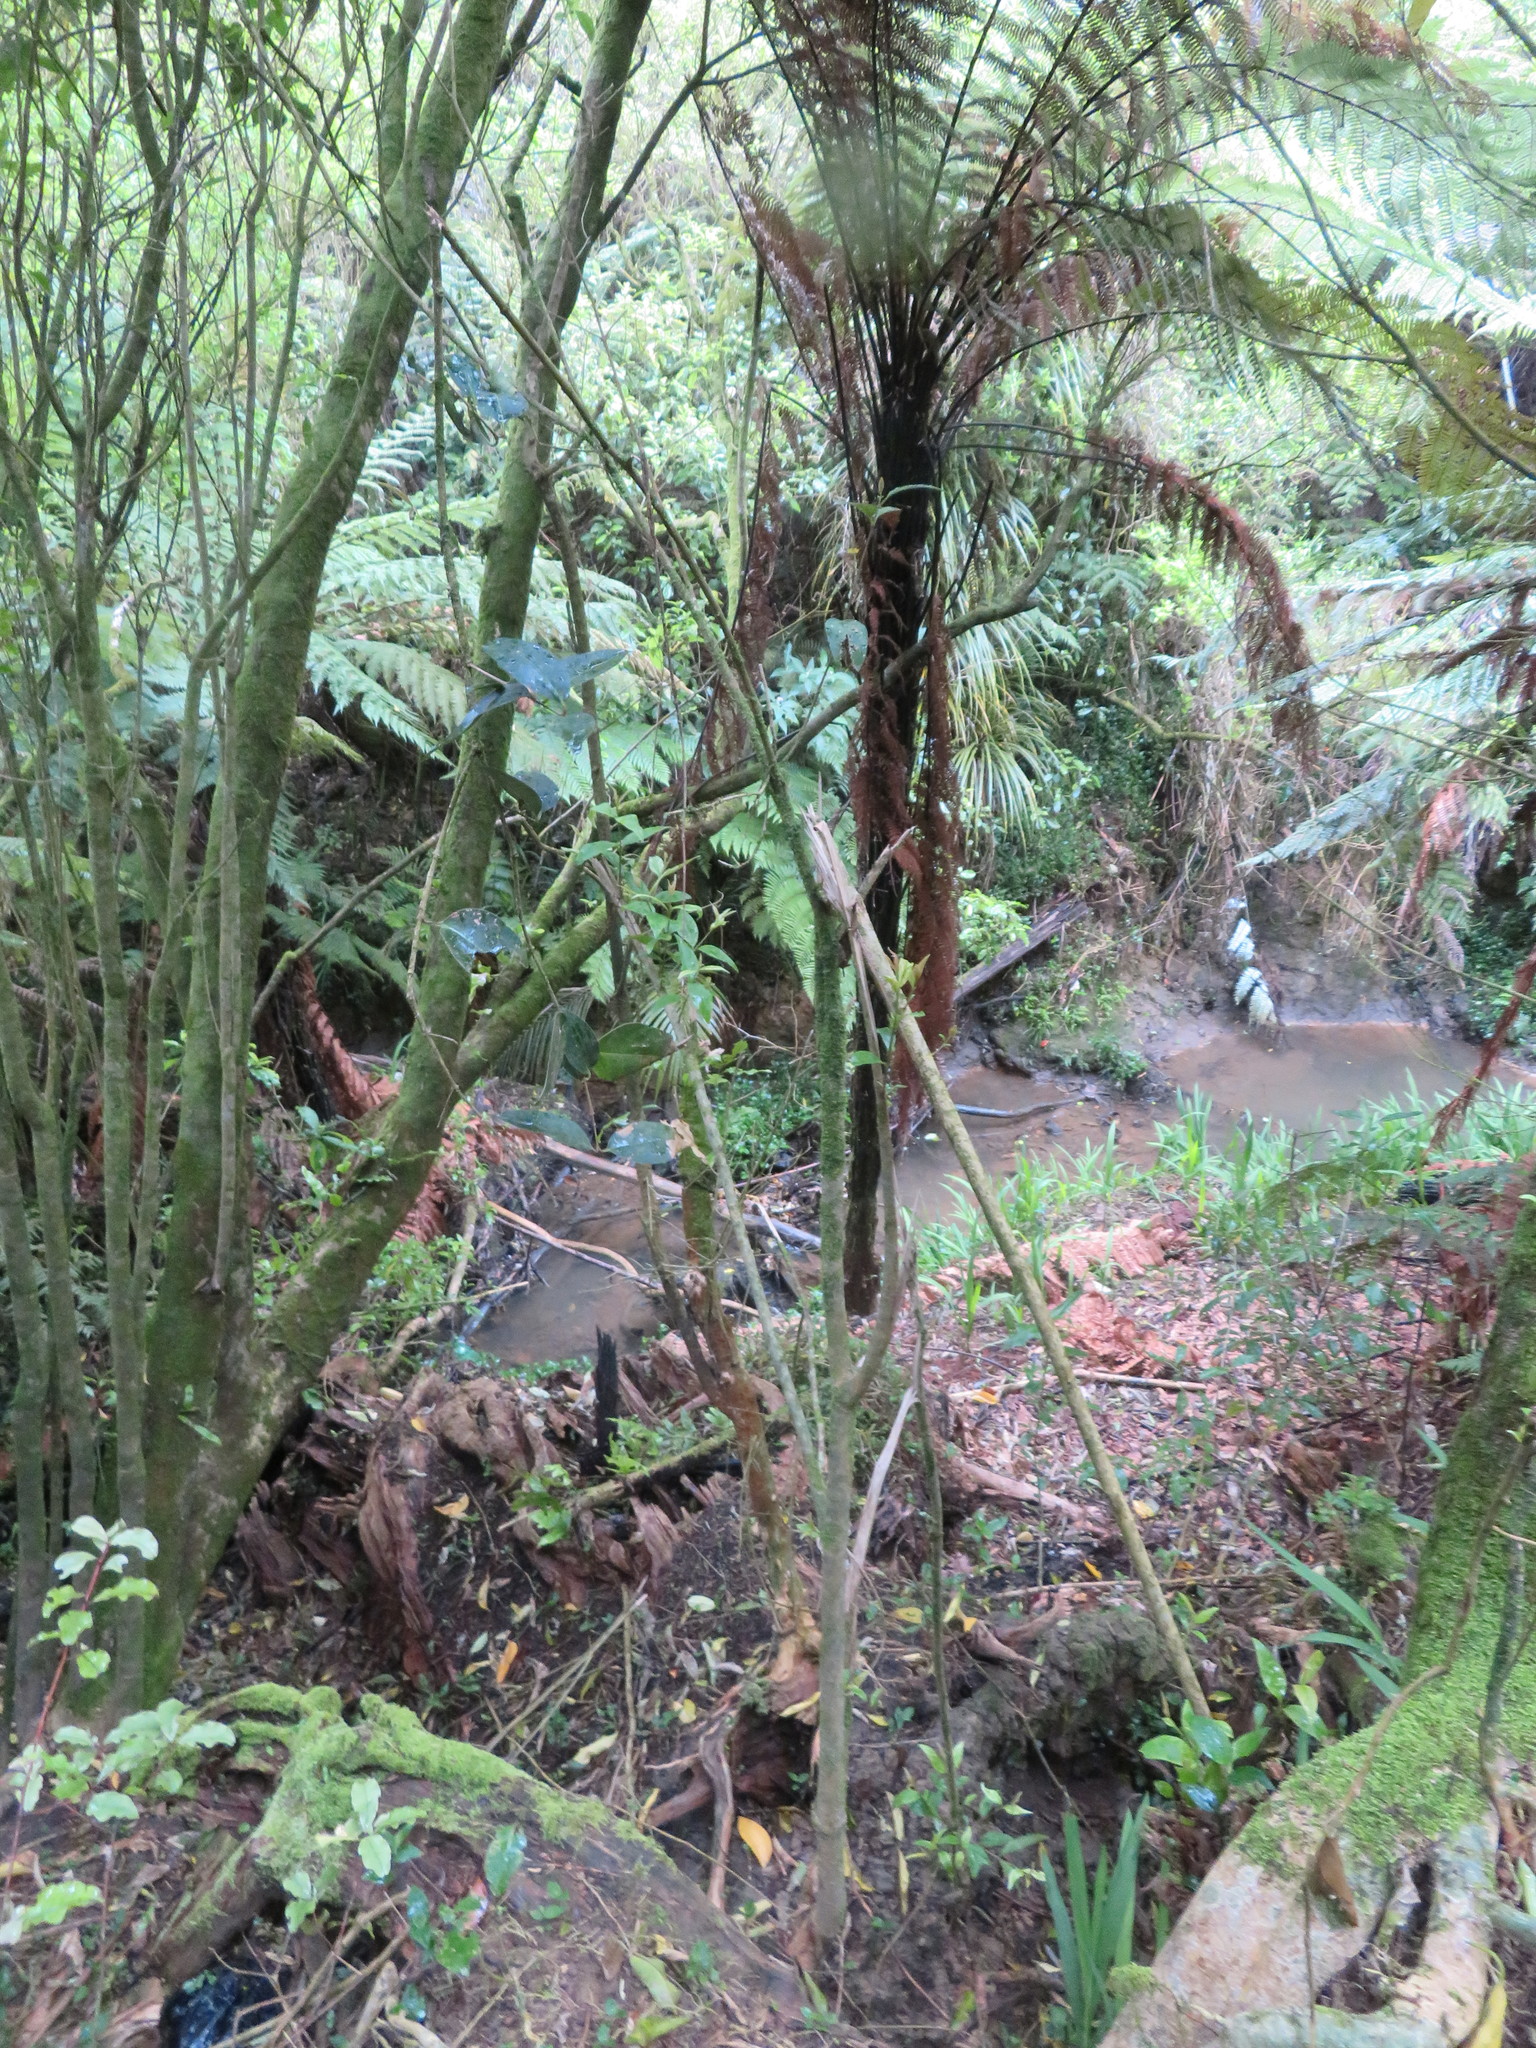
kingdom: Plantae
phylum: Tracheophyta
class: Magnoliopsida
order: Lamiales
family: Oleaceae
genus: Ligustrum
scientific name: Ligustrum lucidum
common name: Glossy privet
